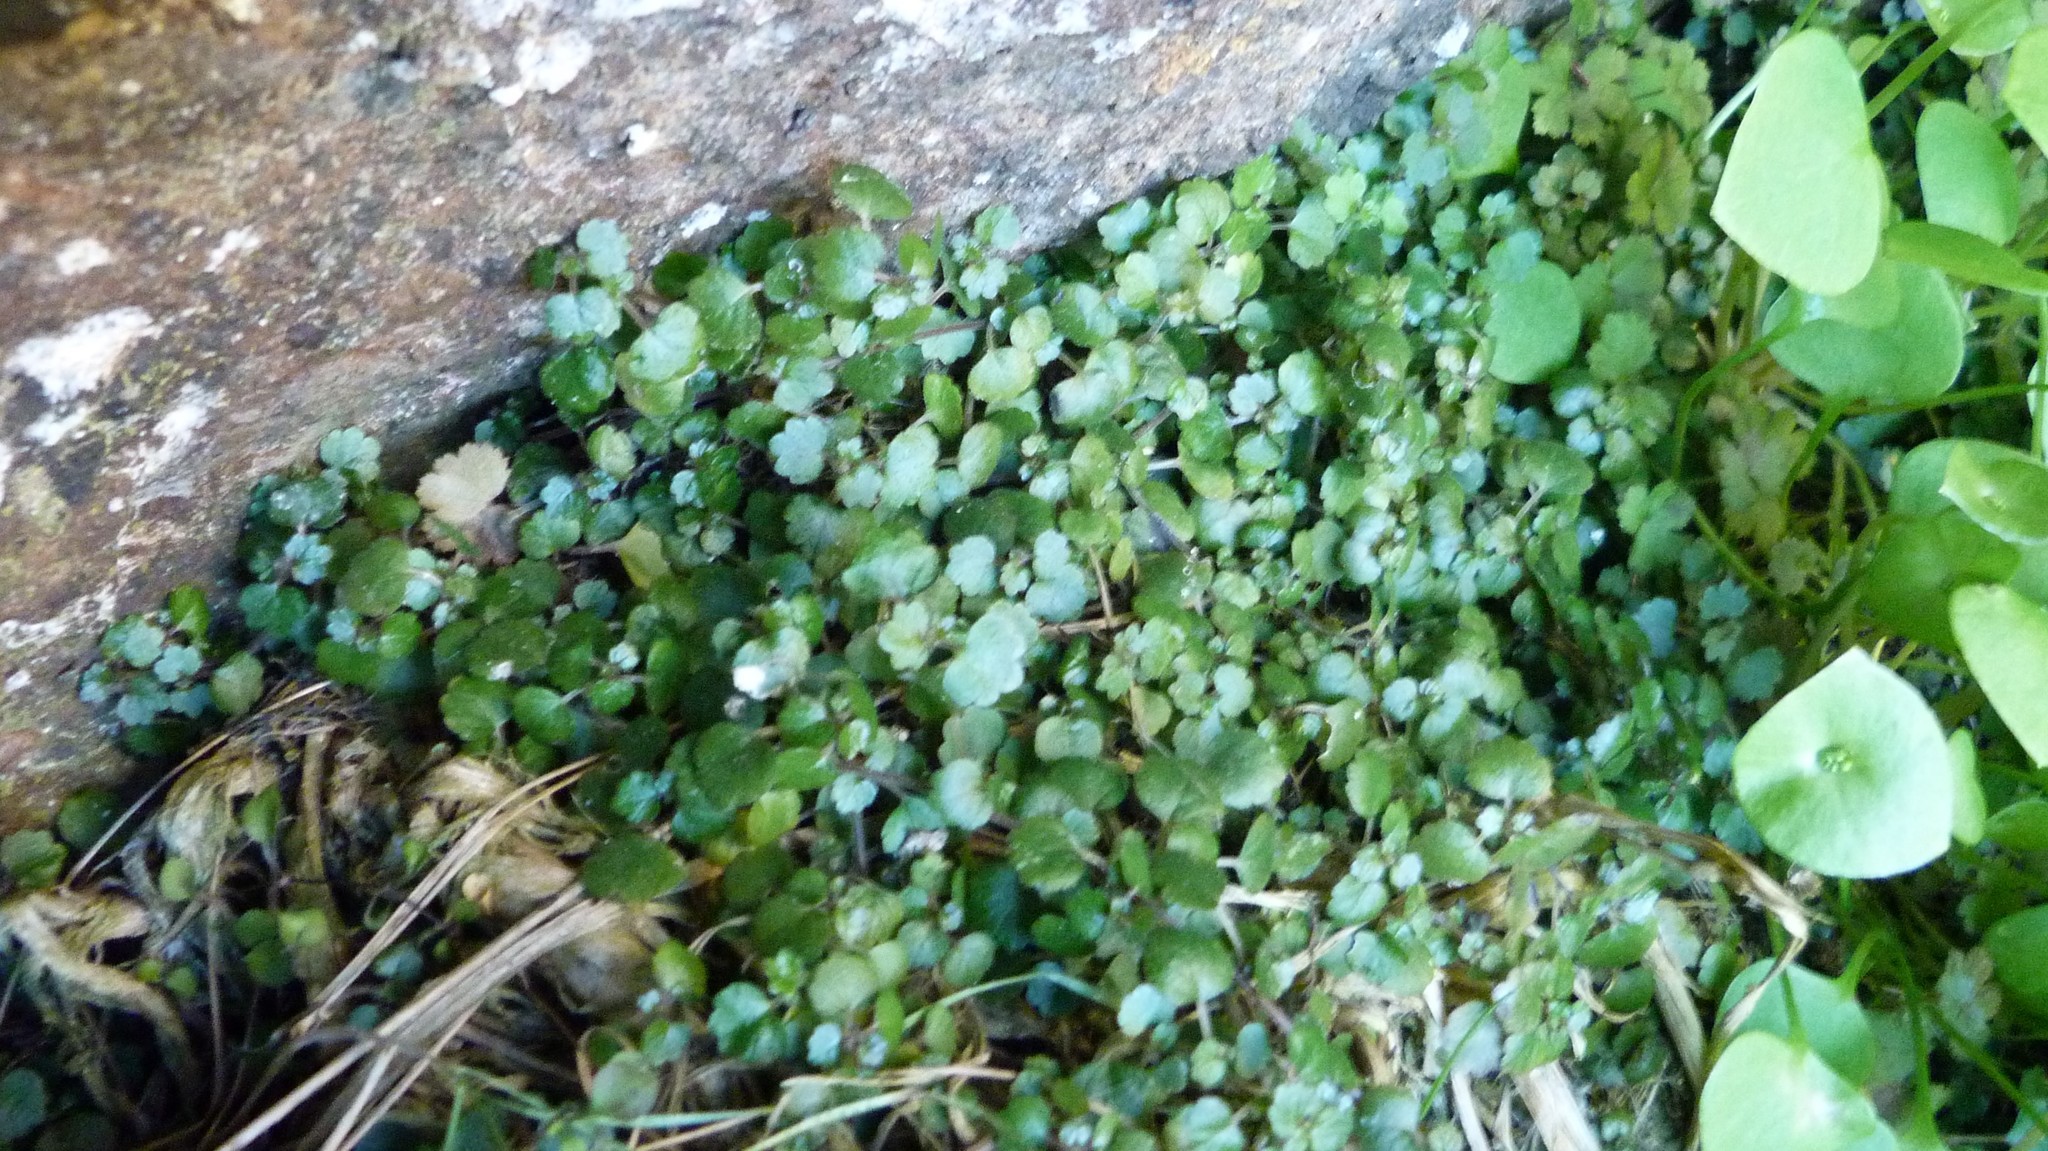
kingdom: Plantae
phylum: Tracheophyta
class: Magnoliopsida
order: Rosales
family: Urticaceae
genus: Australina
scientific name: Australina pusilla
